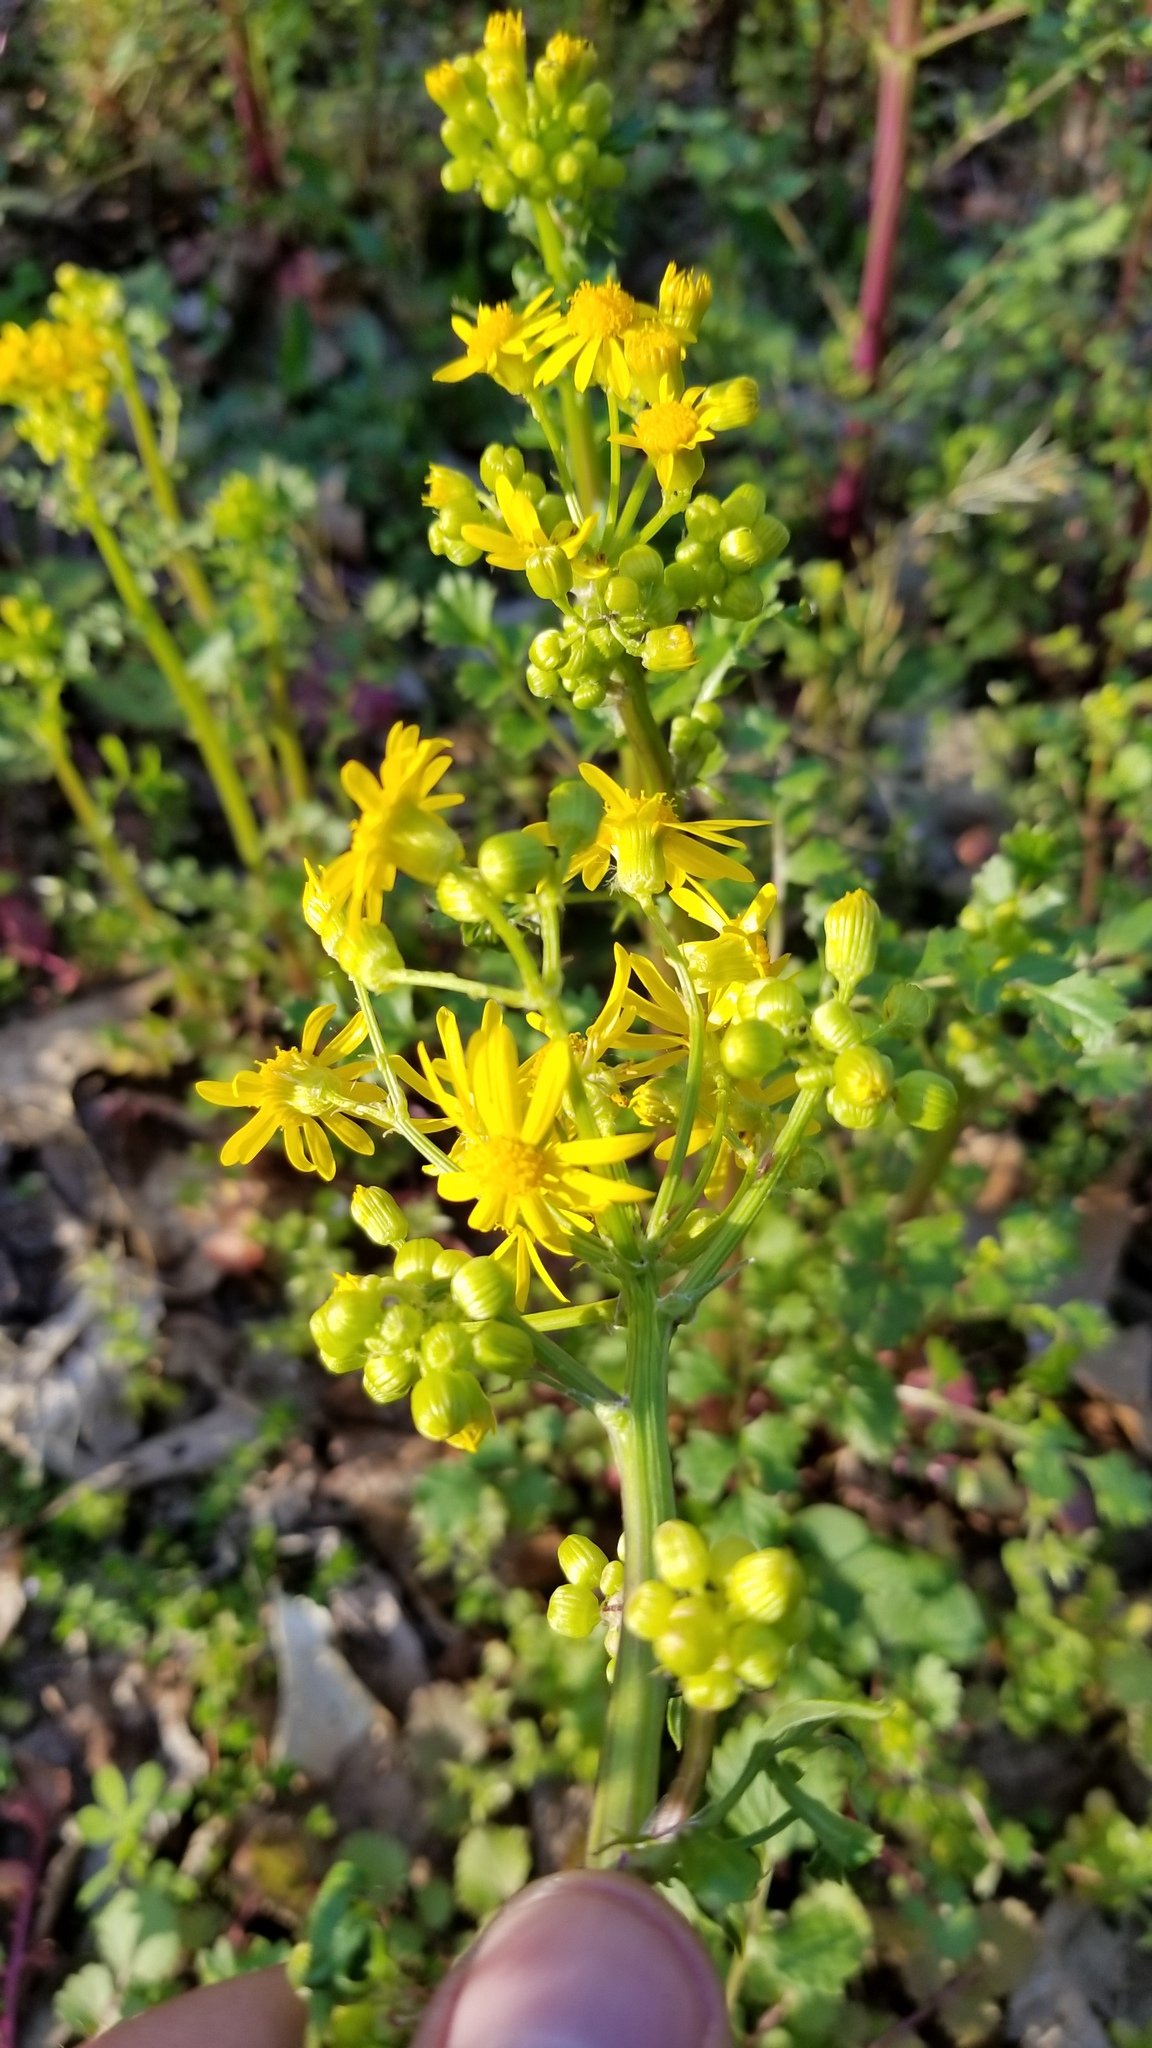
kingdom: Plantae
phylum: Tracheophyta
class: Magnoliopsida
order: Asterales
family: Asteraceae
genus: Packera
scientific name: Packera glabella
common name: Butterweed
